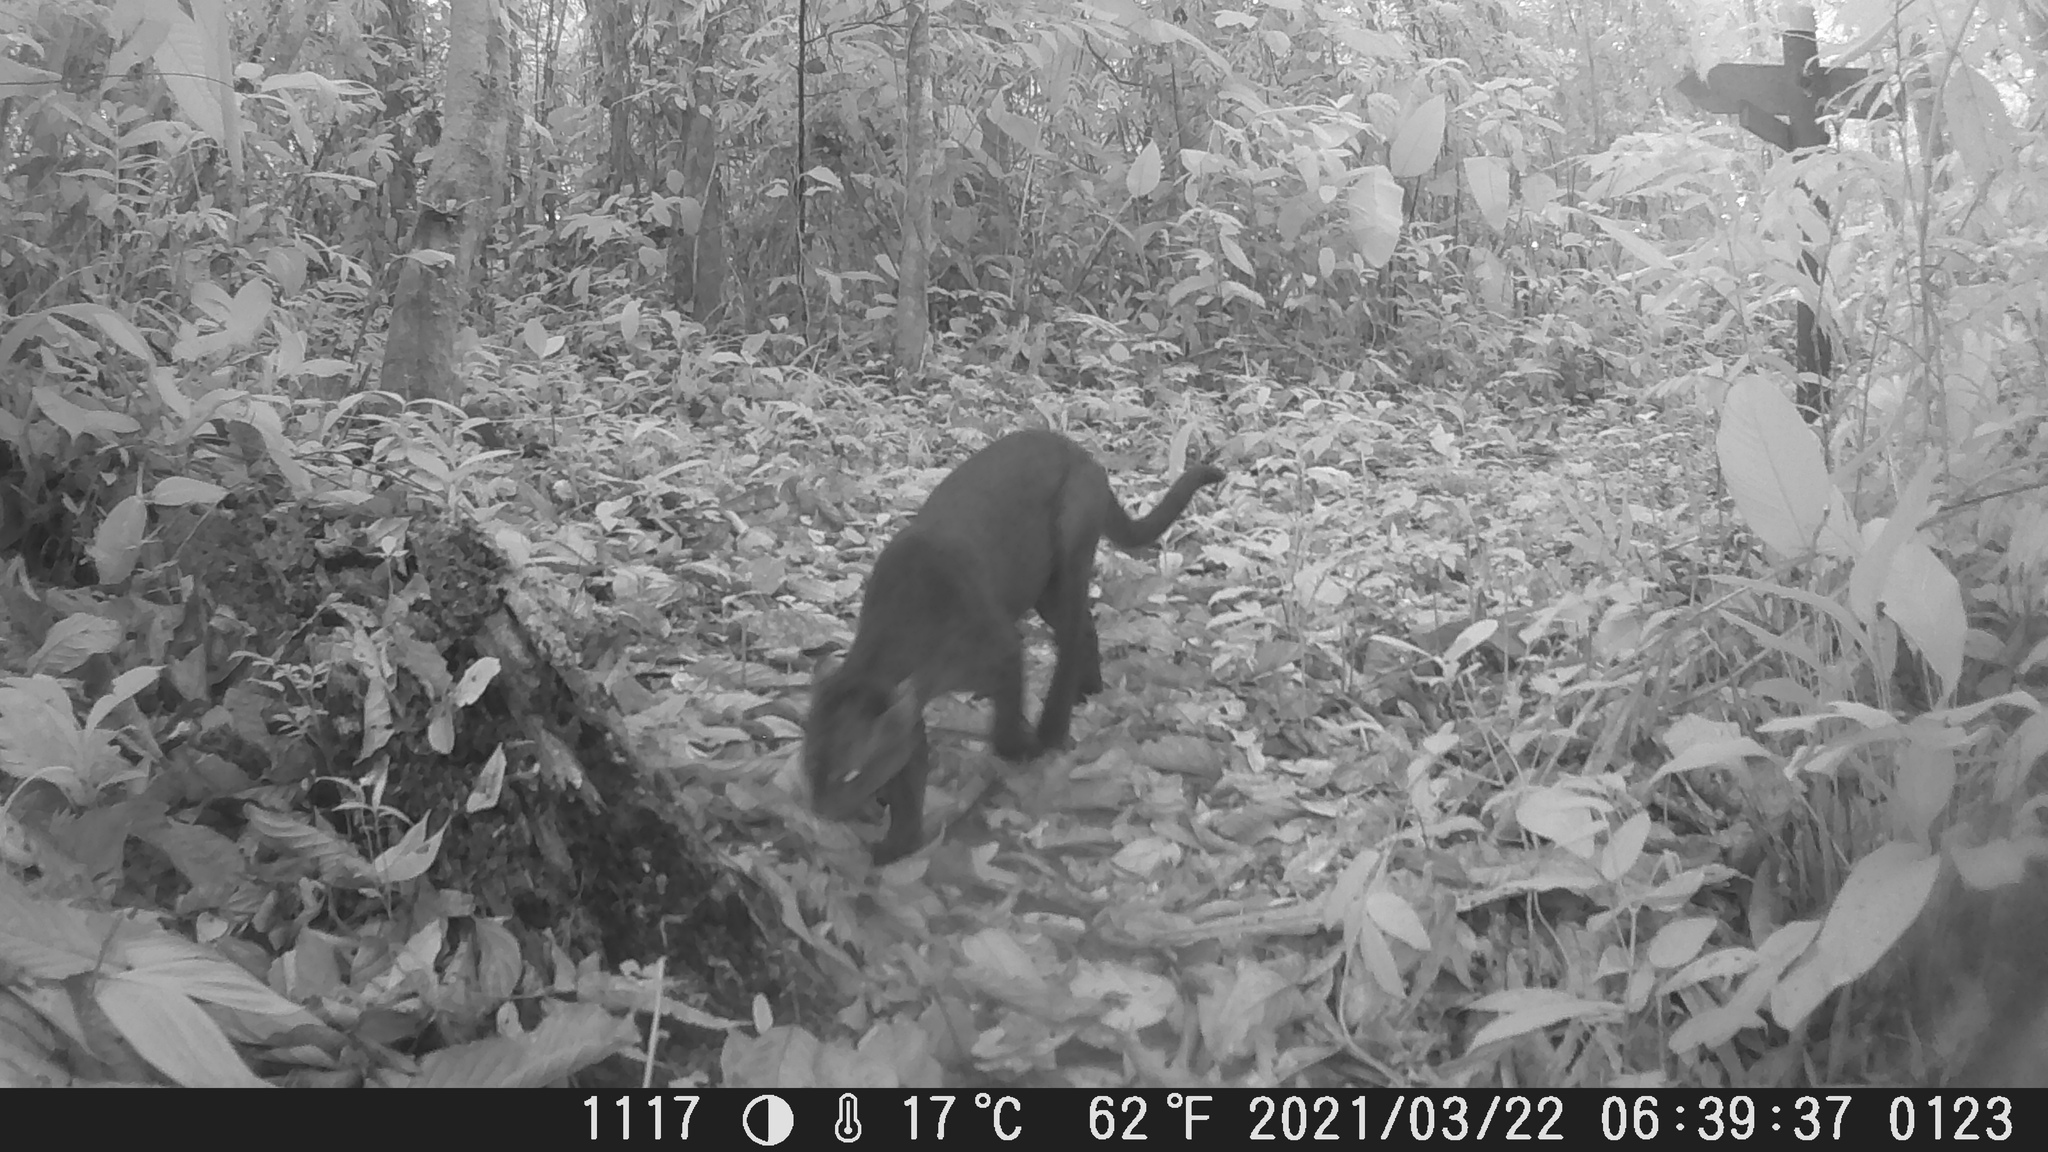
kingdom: Animalia
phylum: Chordata
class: Mammalia
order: Carnivora
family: Felidae
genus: Puma
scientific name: Puma yagouaroundi
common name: Jaguarundi
